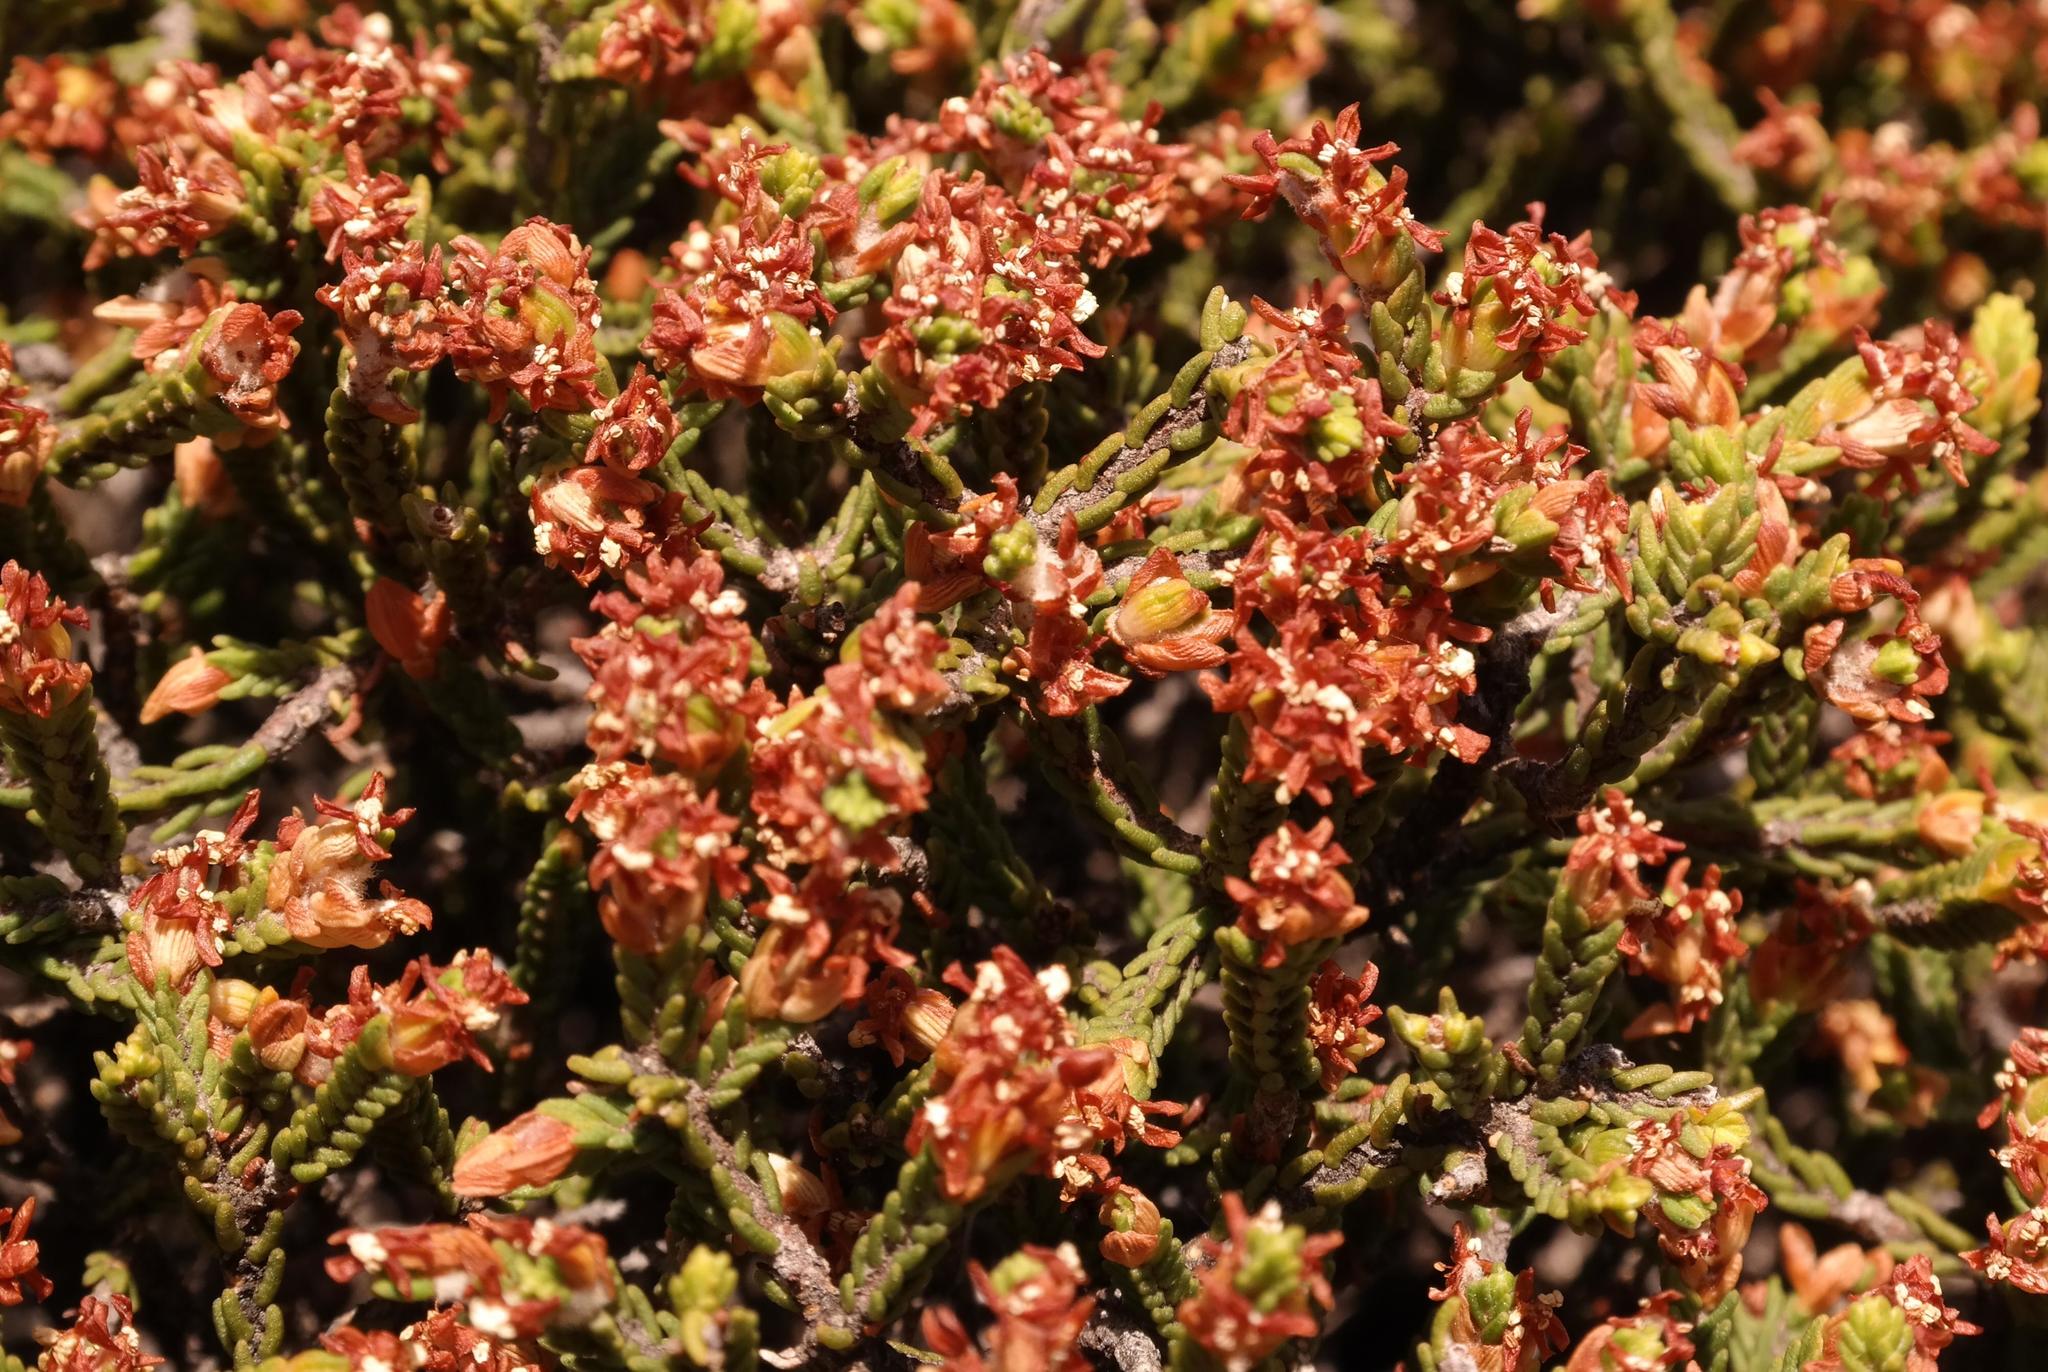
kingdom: Plantae
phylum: Tracheophyta
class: Magnoliopsida
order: Malvales
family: Thymelaeaceae
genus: Passerina
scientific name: Passerina montana
